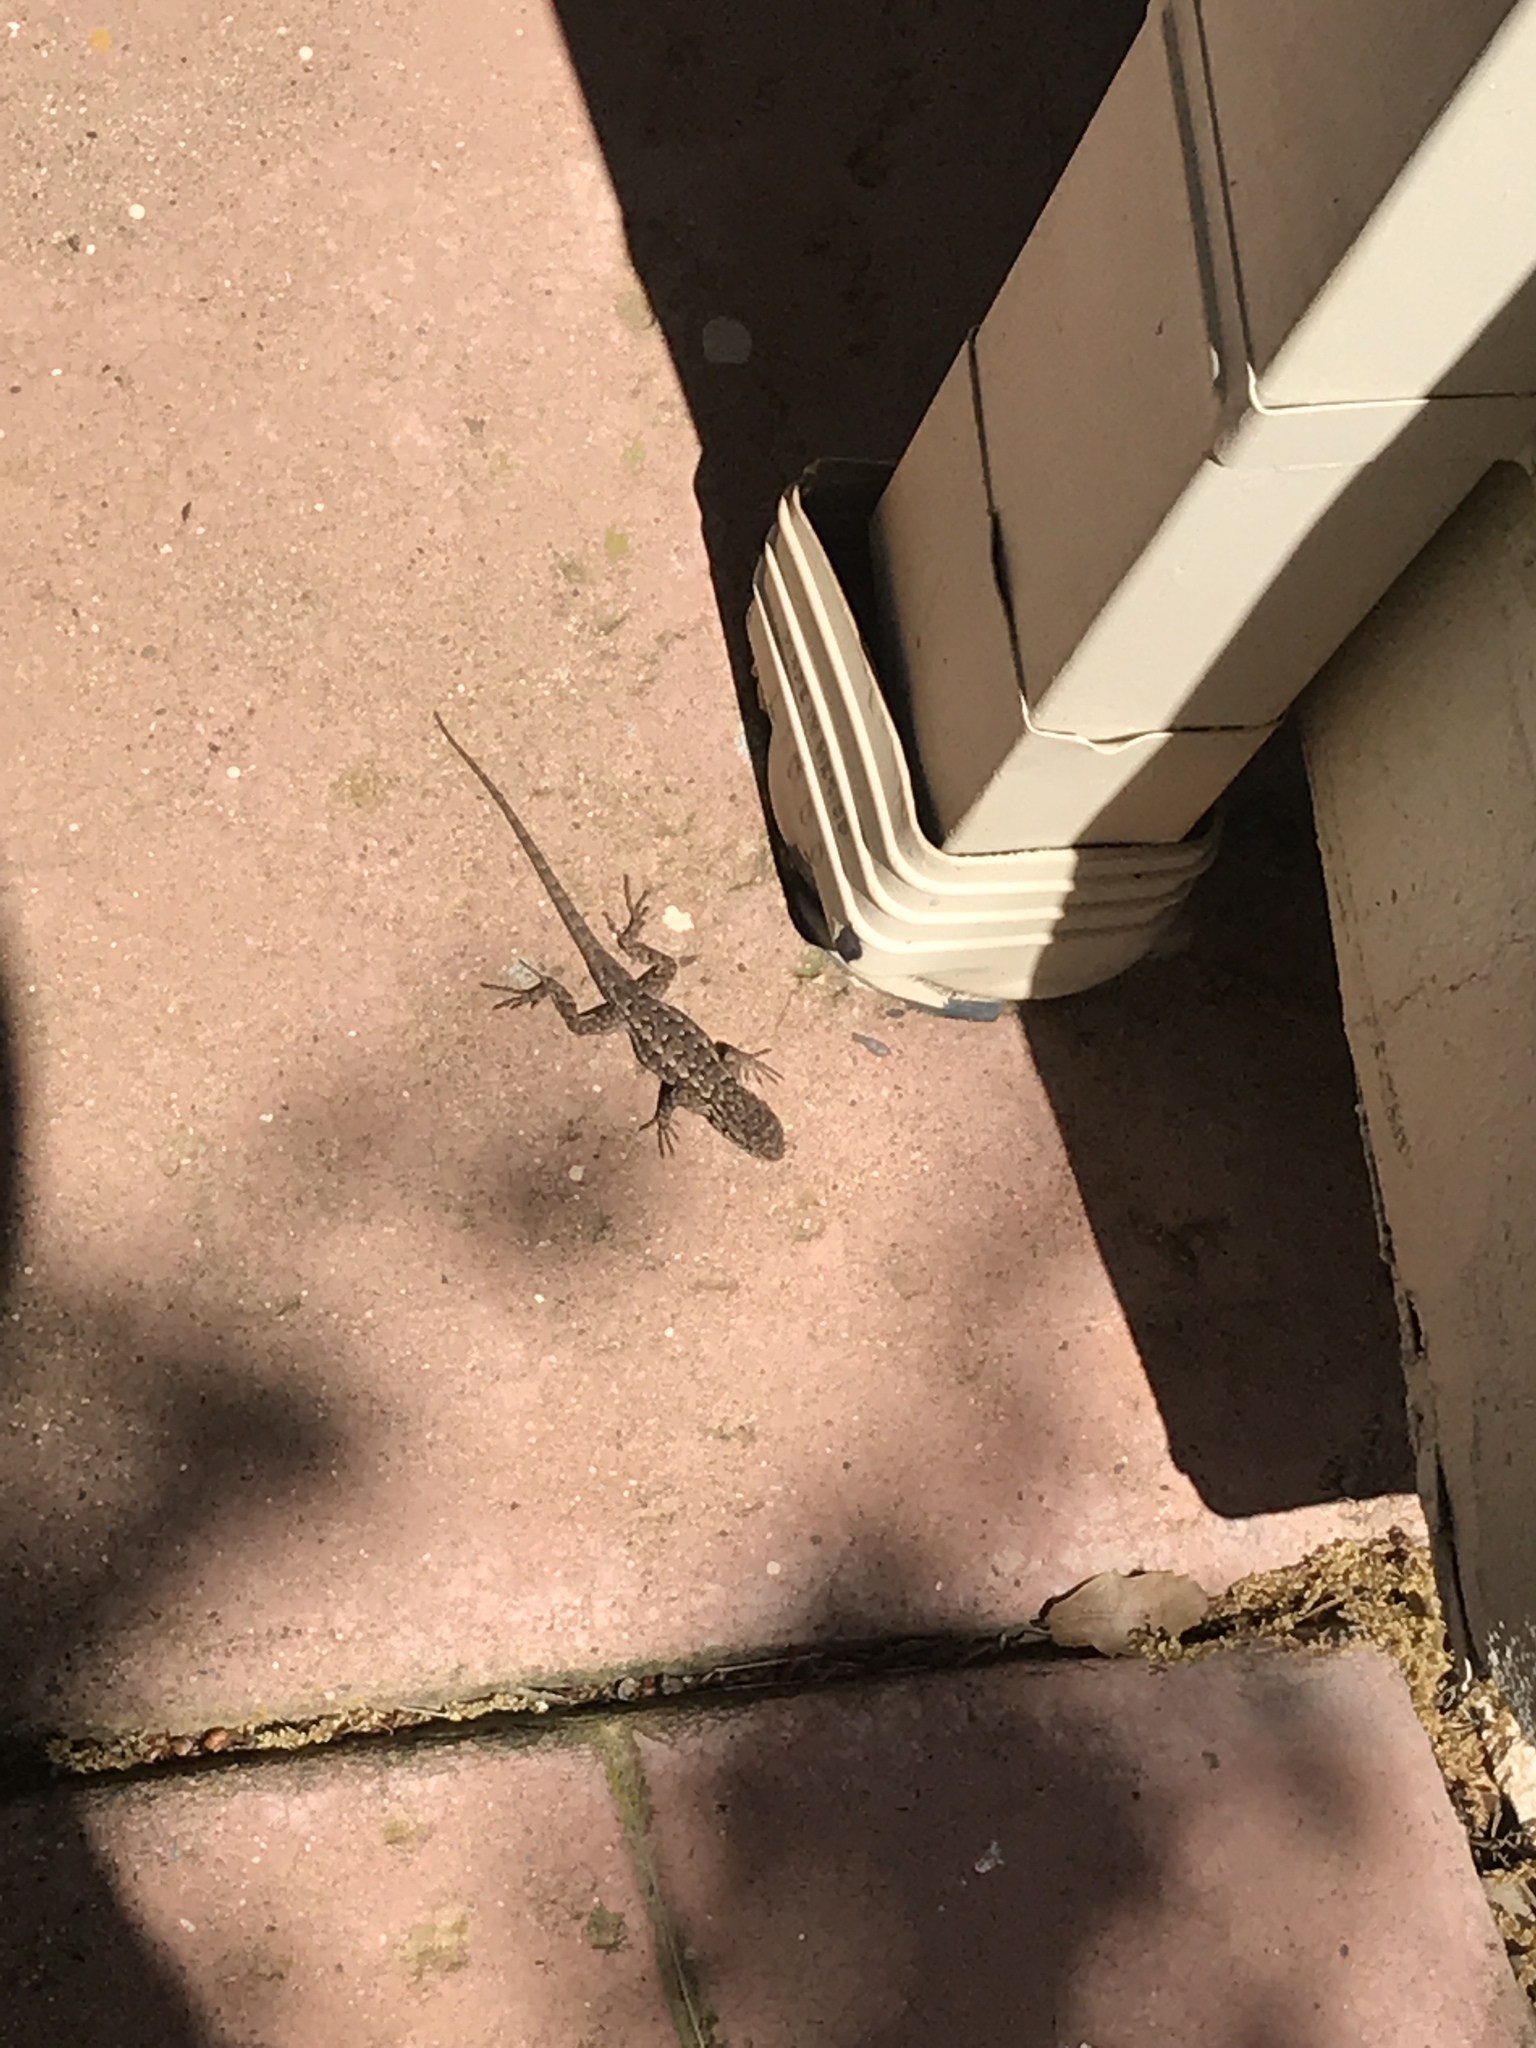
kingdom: Animalia
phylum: Chordata
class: Squamata
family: Phrynosomatidae
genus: Sceloporus
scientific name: Sceloporus occidentalis
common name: Western fence lizard
